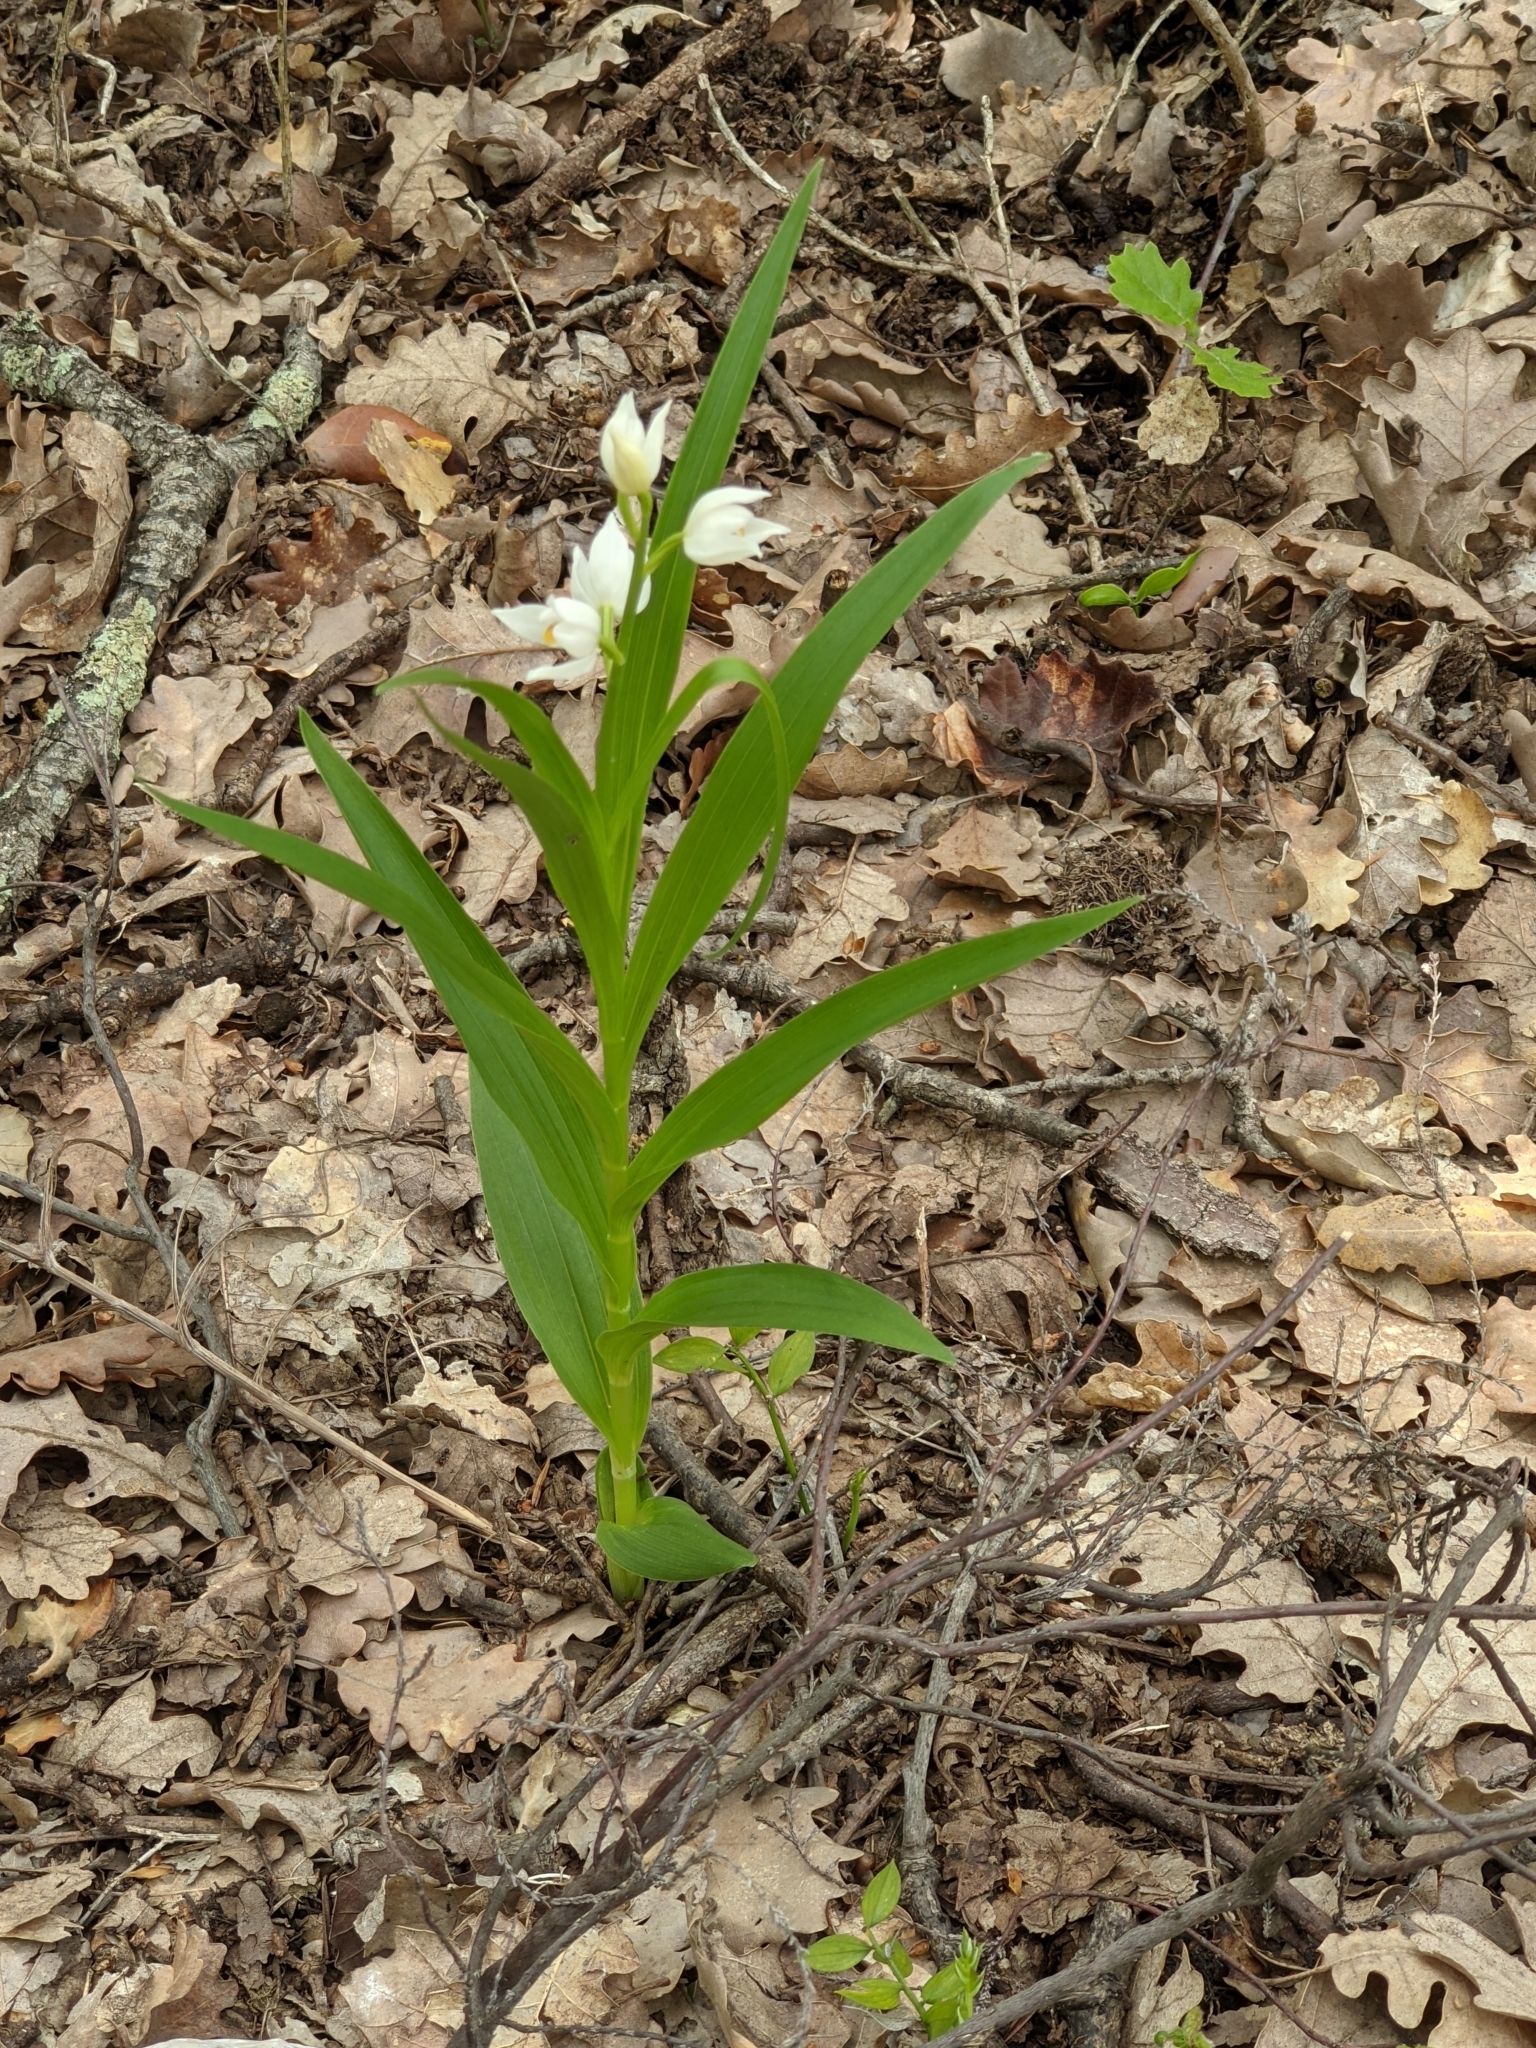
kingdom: Plantae
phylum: Tracheophyta
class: Liliopsida
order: Asparagales
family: Orchidaceae
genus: Cephalanthera
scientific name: Cephalanthera longifolia
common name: Narrow-leaved helleborine
